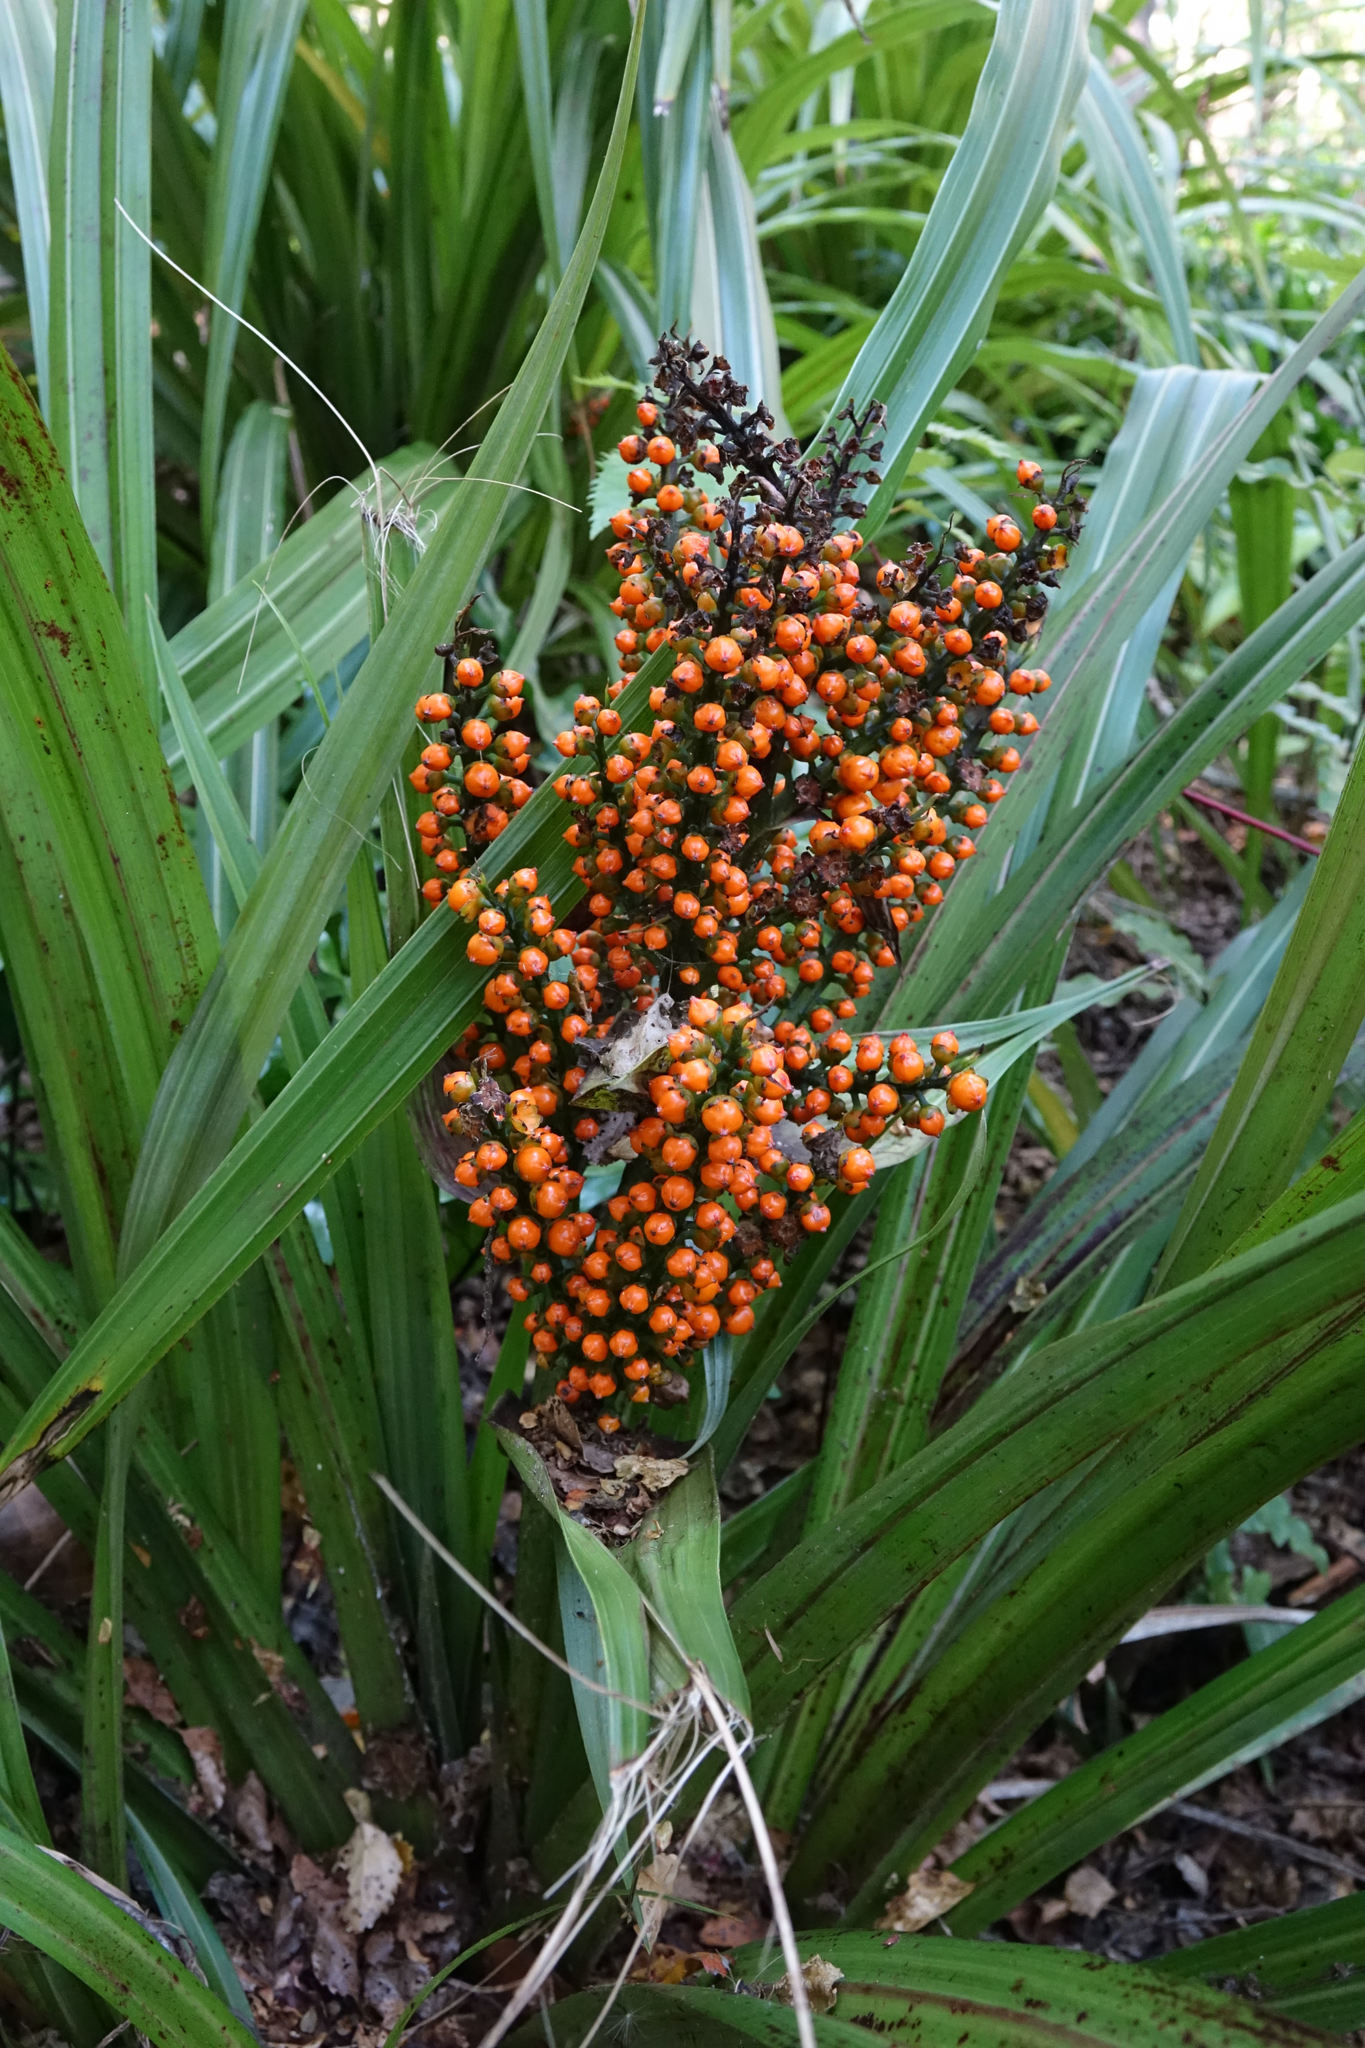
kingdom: Plantae
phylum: Tracheophyta
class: Liliopsida
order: Asparagales
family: Asteliaceae
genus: Astelia
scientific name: Astelia fragrans
